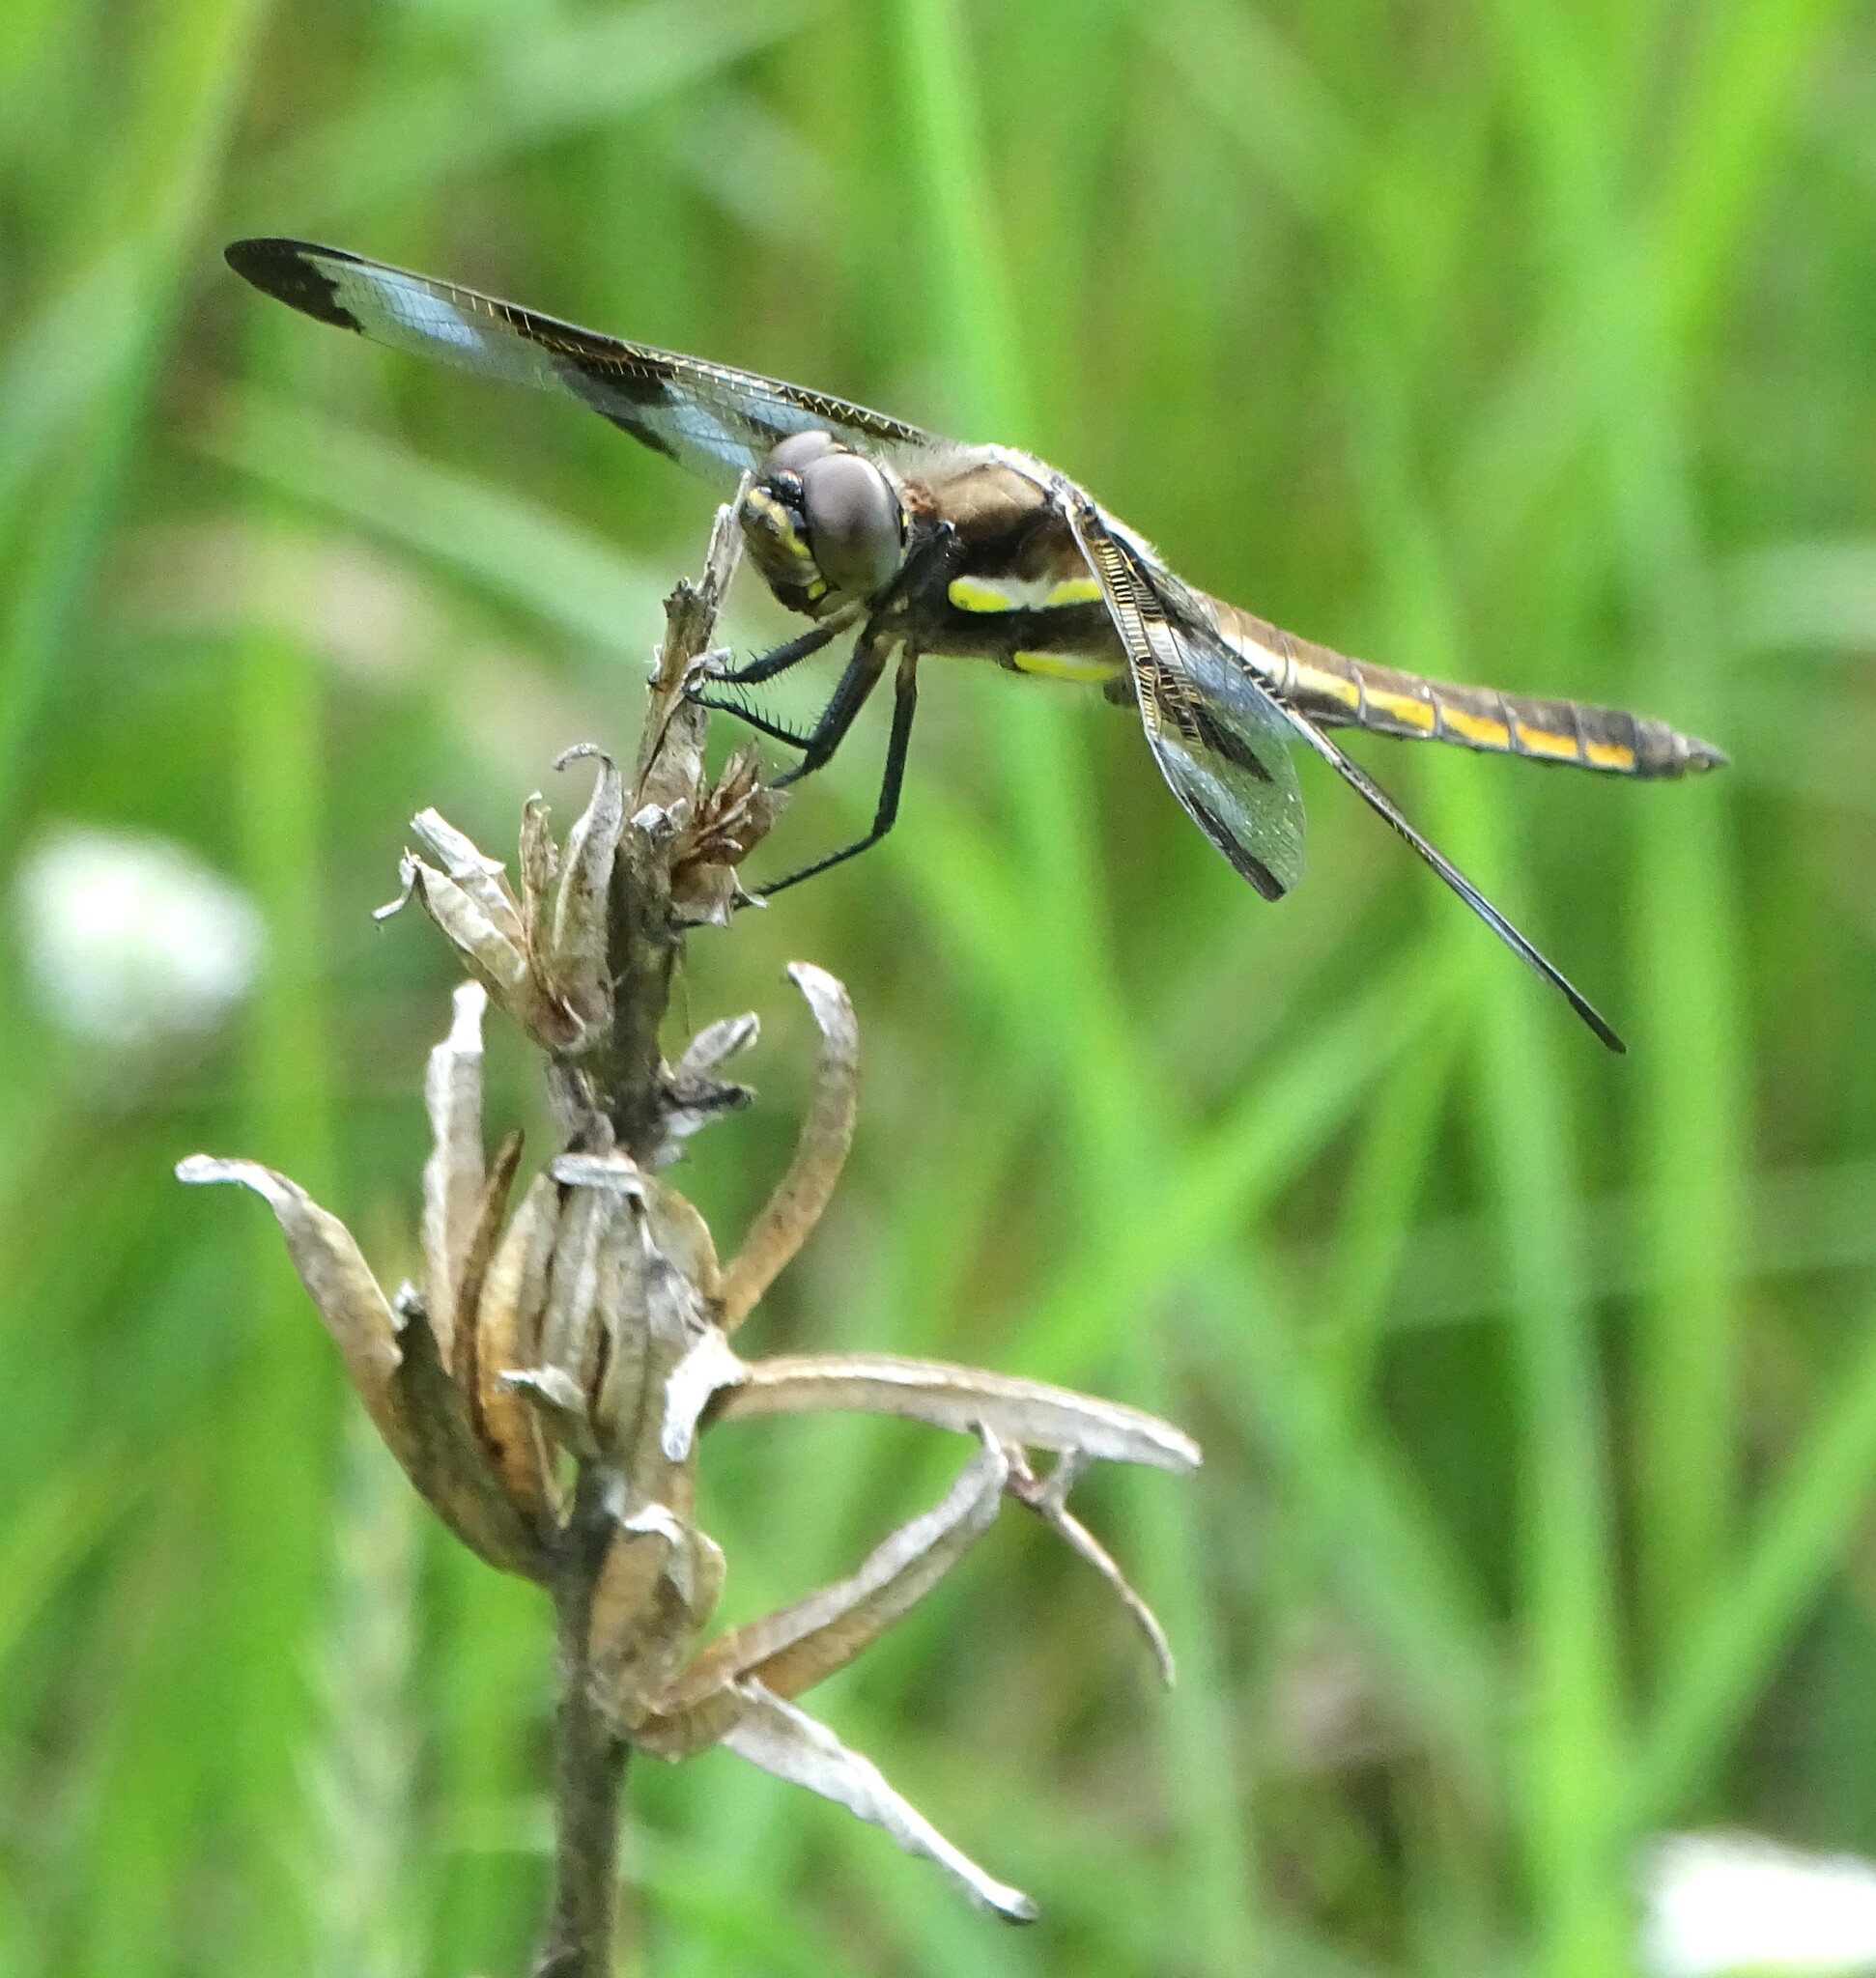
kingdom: Animalia
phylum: Arthropoda
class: Insecta
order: Odonata
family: Libellulidae
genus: Libellula
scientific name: Libellula pulchella
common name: Twelve-spotted skimmer
